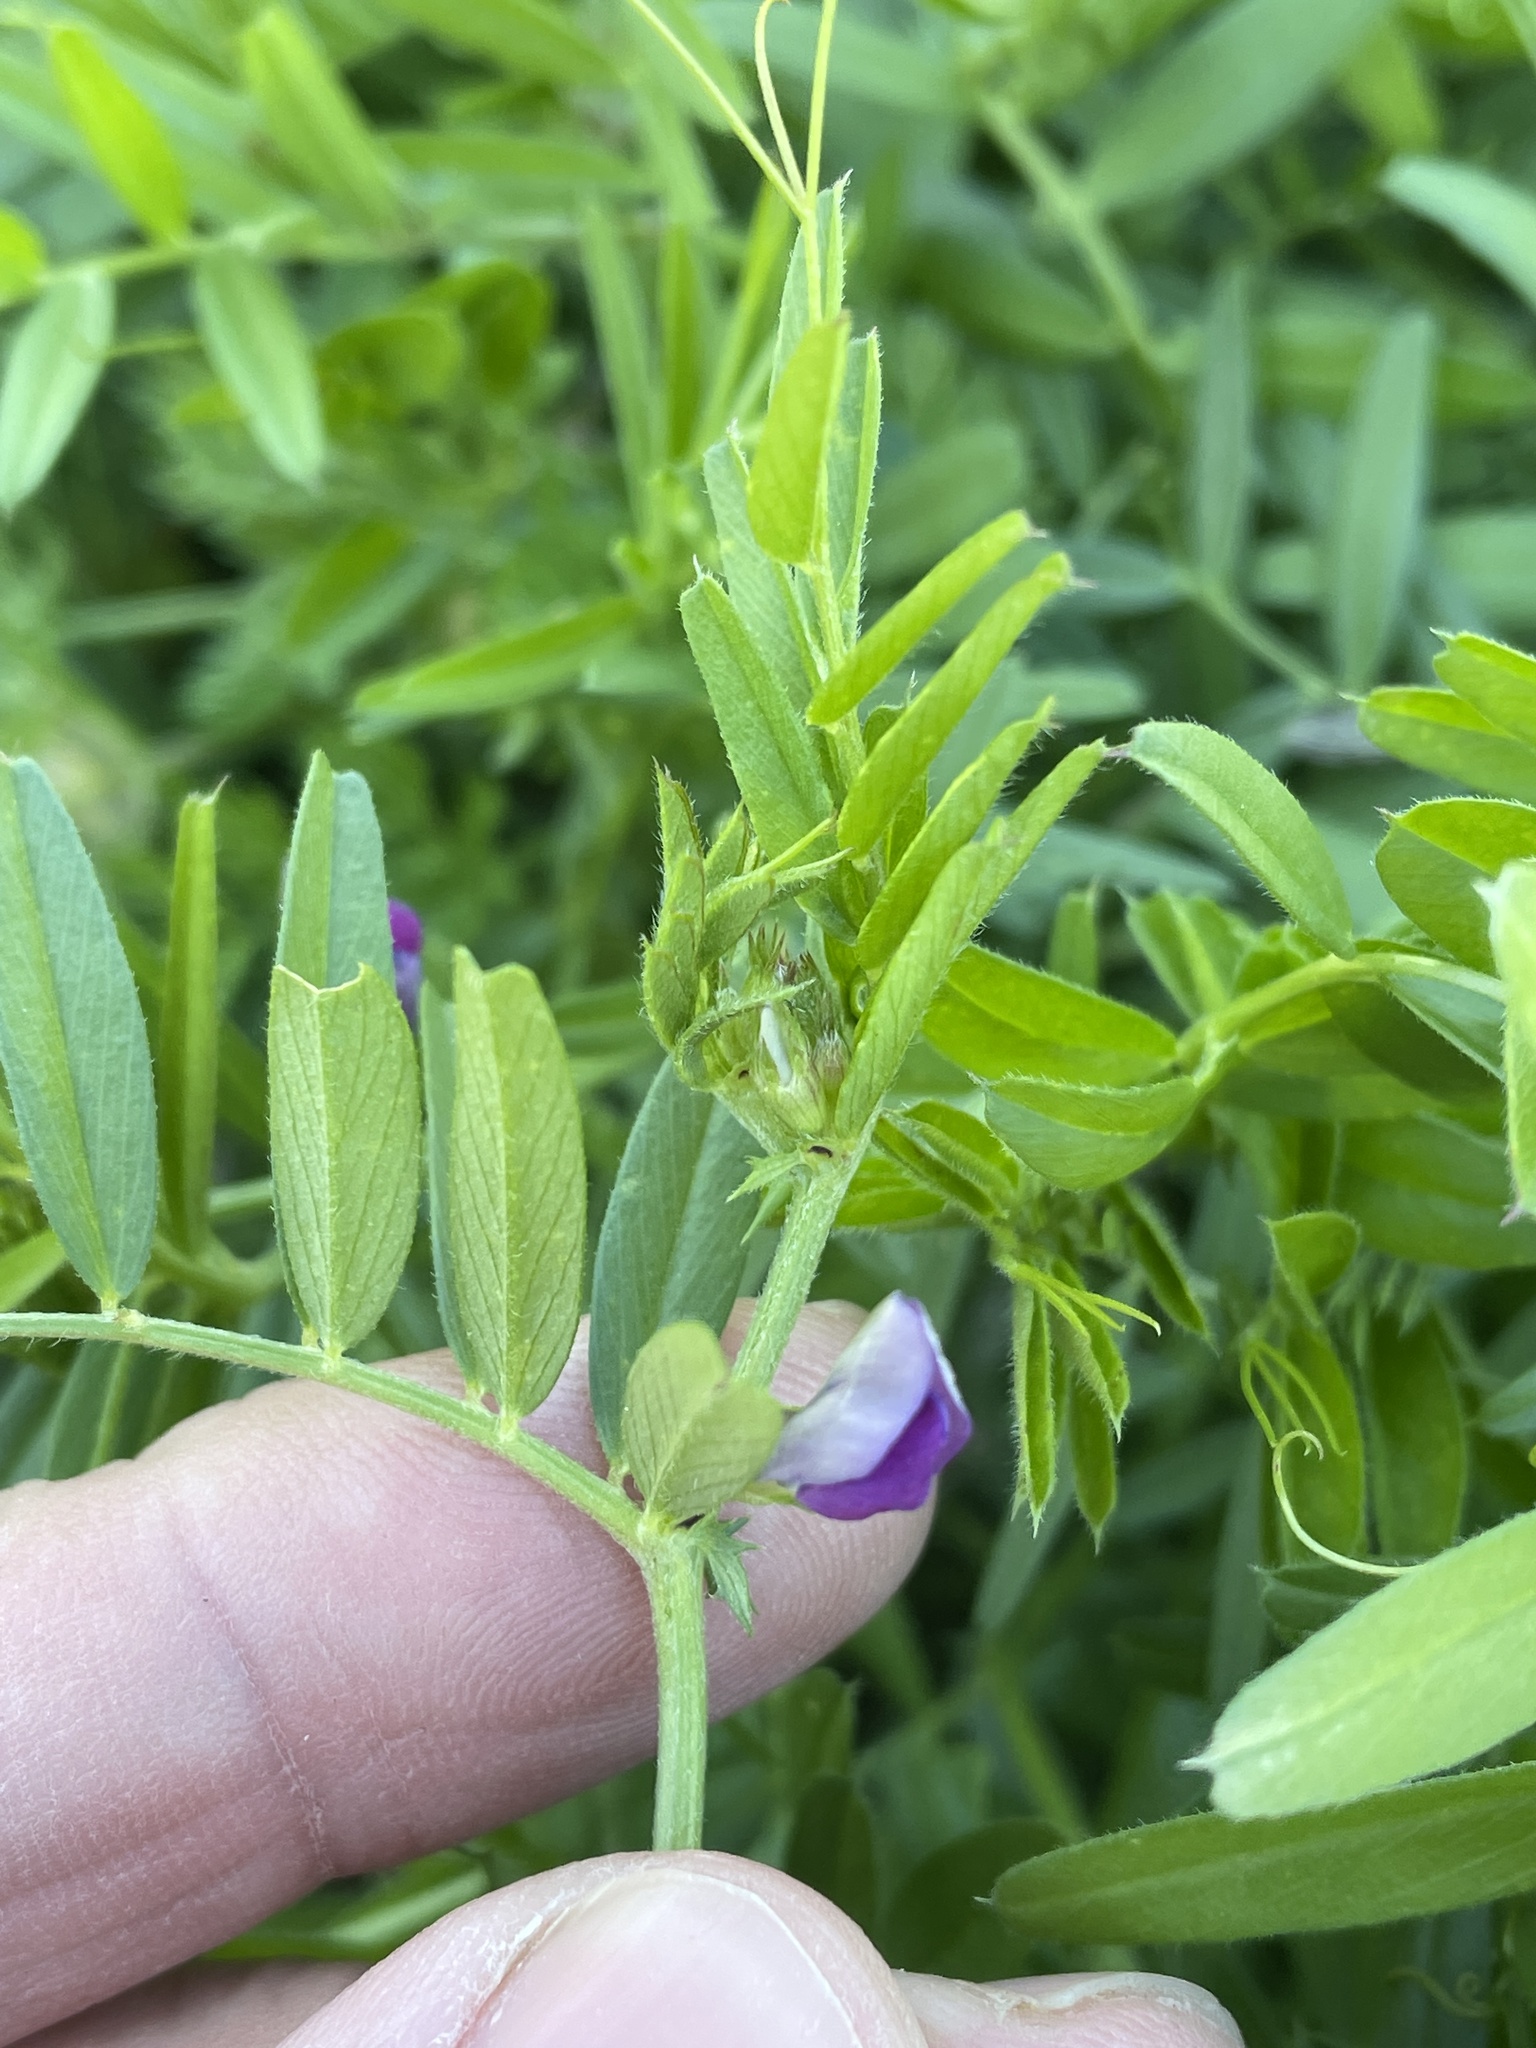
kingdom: Plantae
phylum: Tracheophyta
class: Magnoliopsida
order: Fabales
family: Fabaceae
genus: Vicia
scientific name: Vicia sativa
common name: Garden vetch
